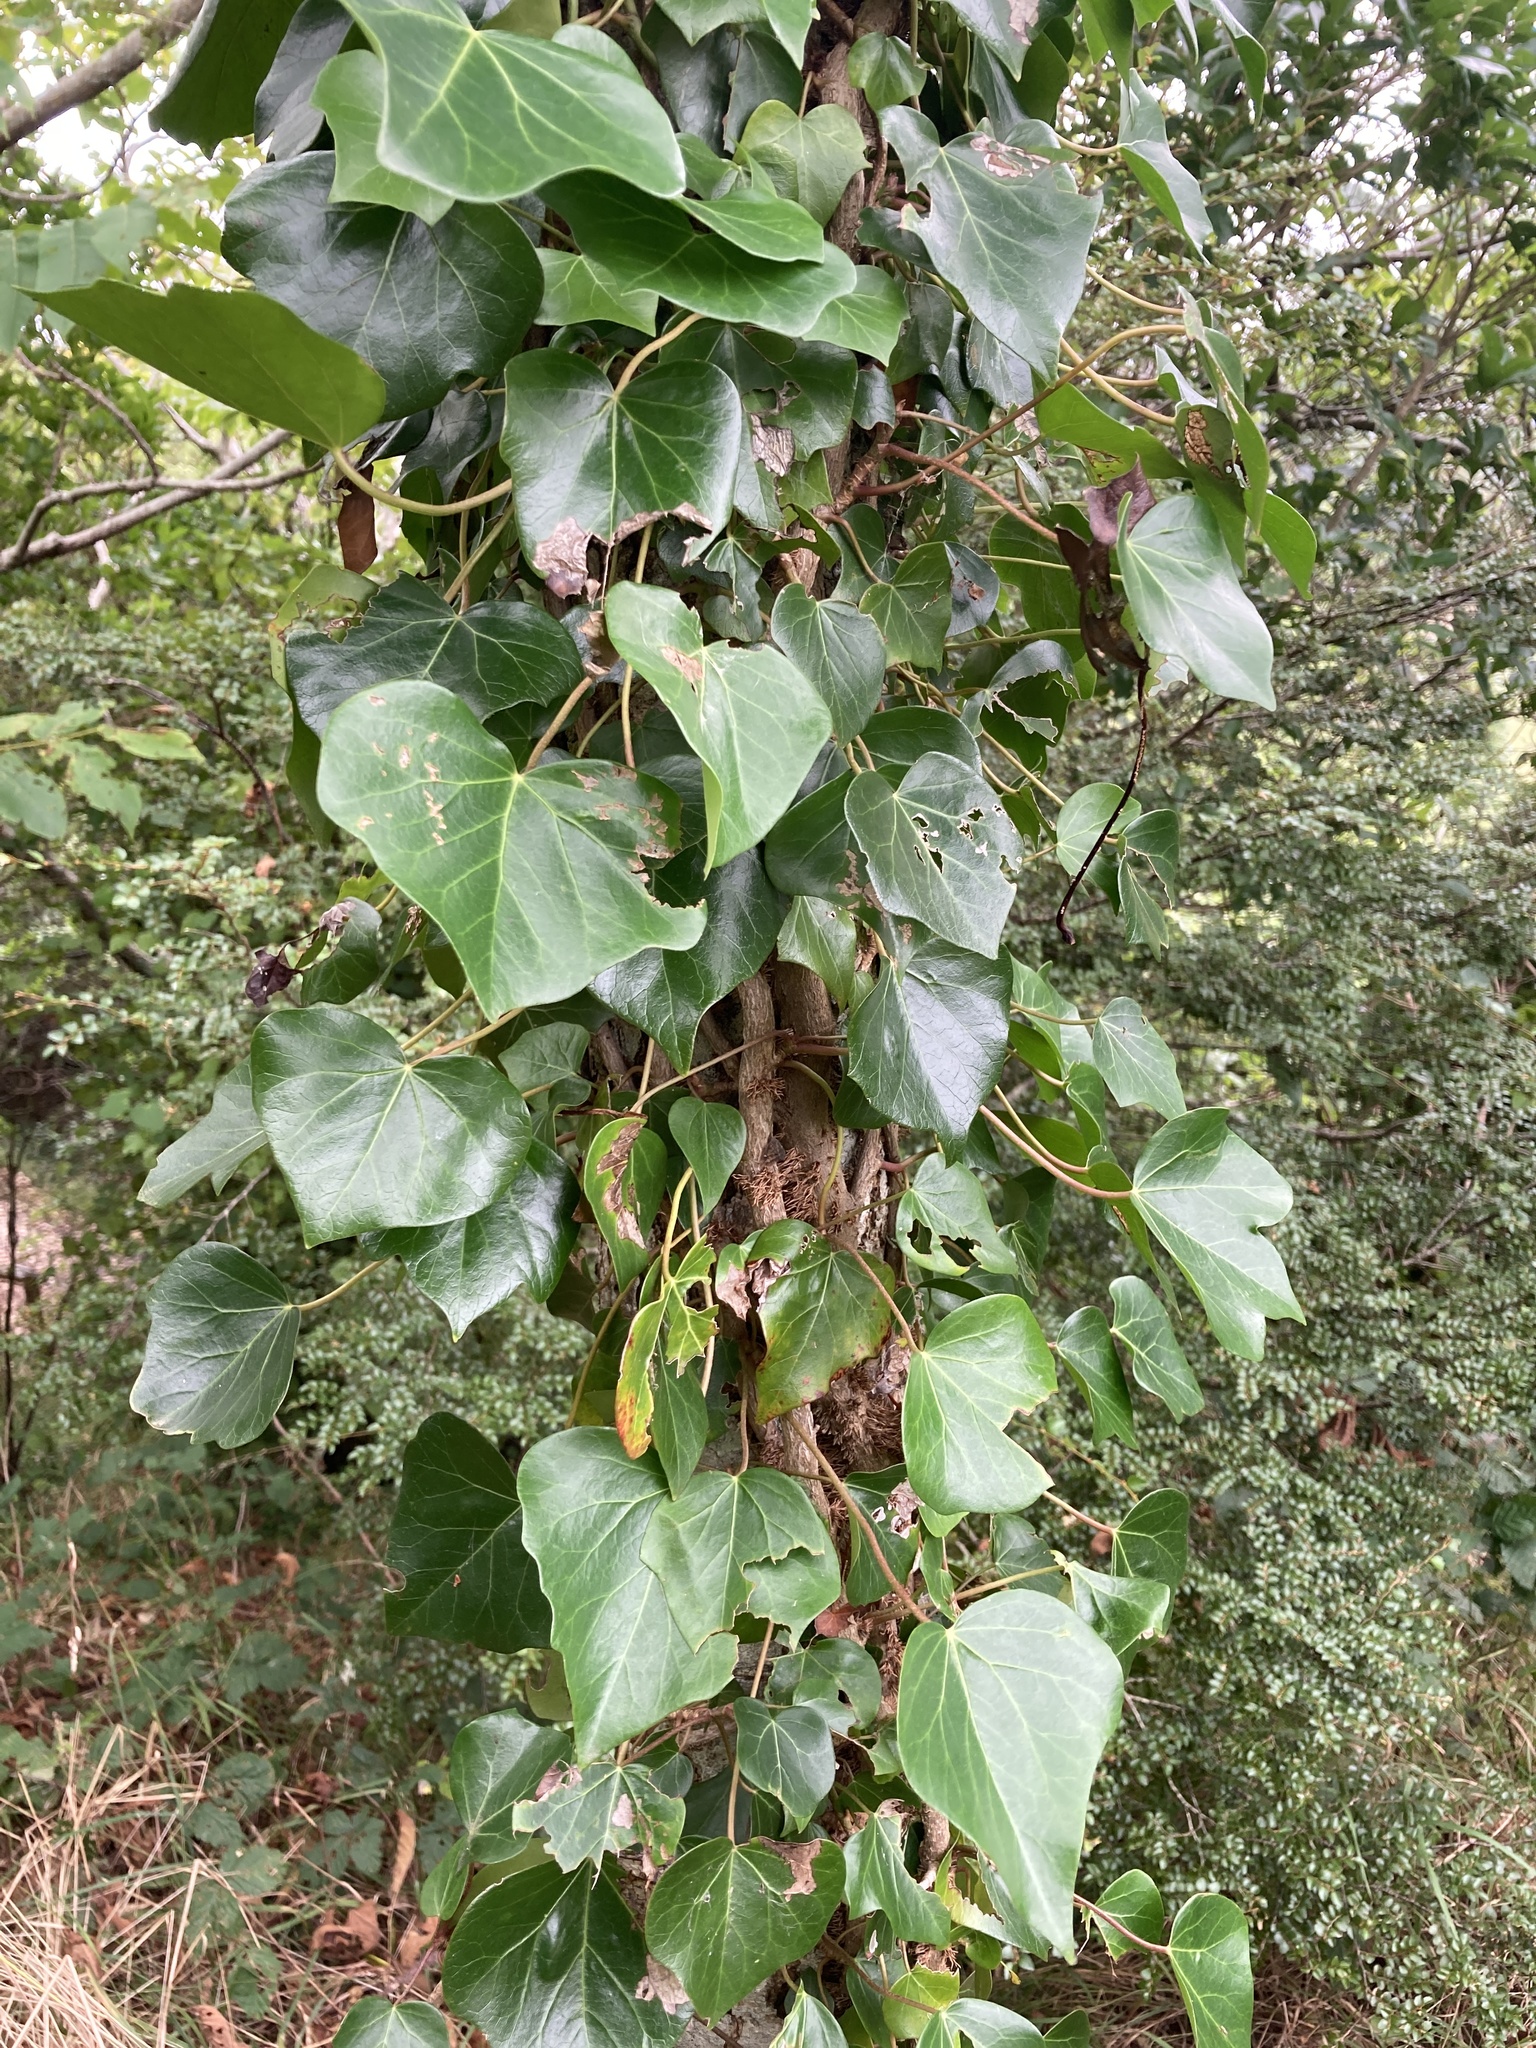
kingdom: Plantae
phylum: Tracheophyta
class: Magnoliopsida
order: Apiales
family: Araliaceae
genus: Hedera
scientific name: Hedera helix
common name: Ivy
